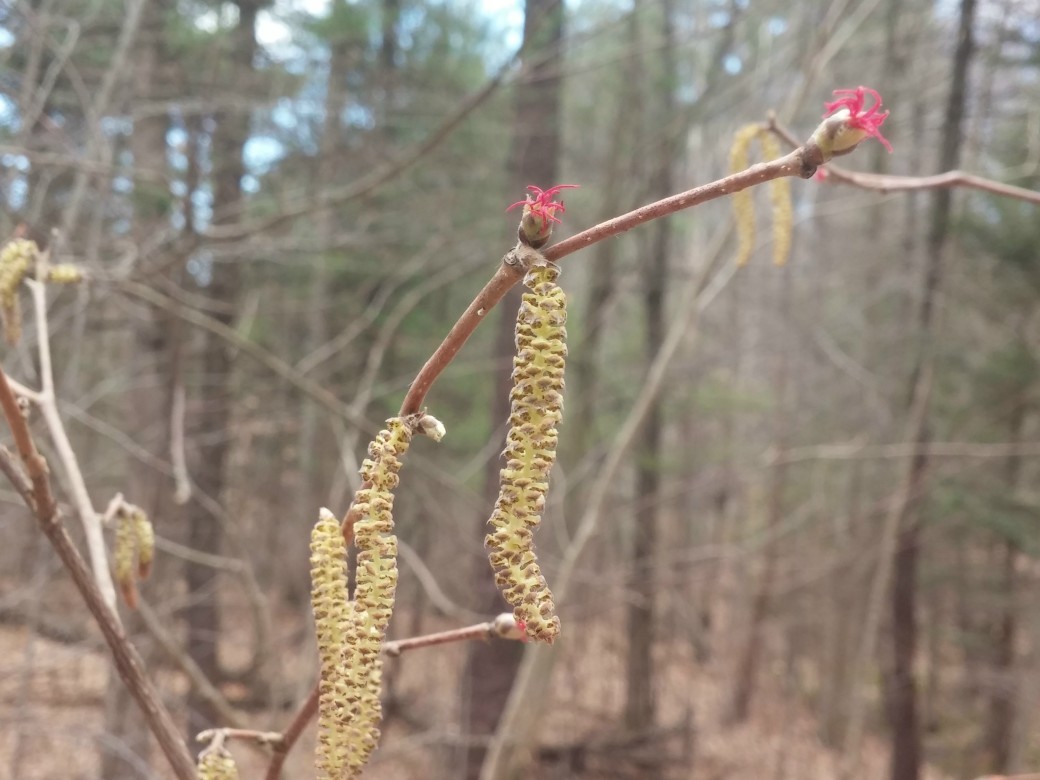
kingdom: Plantae
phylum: Tracheophyta
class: Magnoliopsida
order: Fagales
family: Betulaceae
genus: Corylus
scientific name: Corylus cornuta
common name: Beaked hazel
